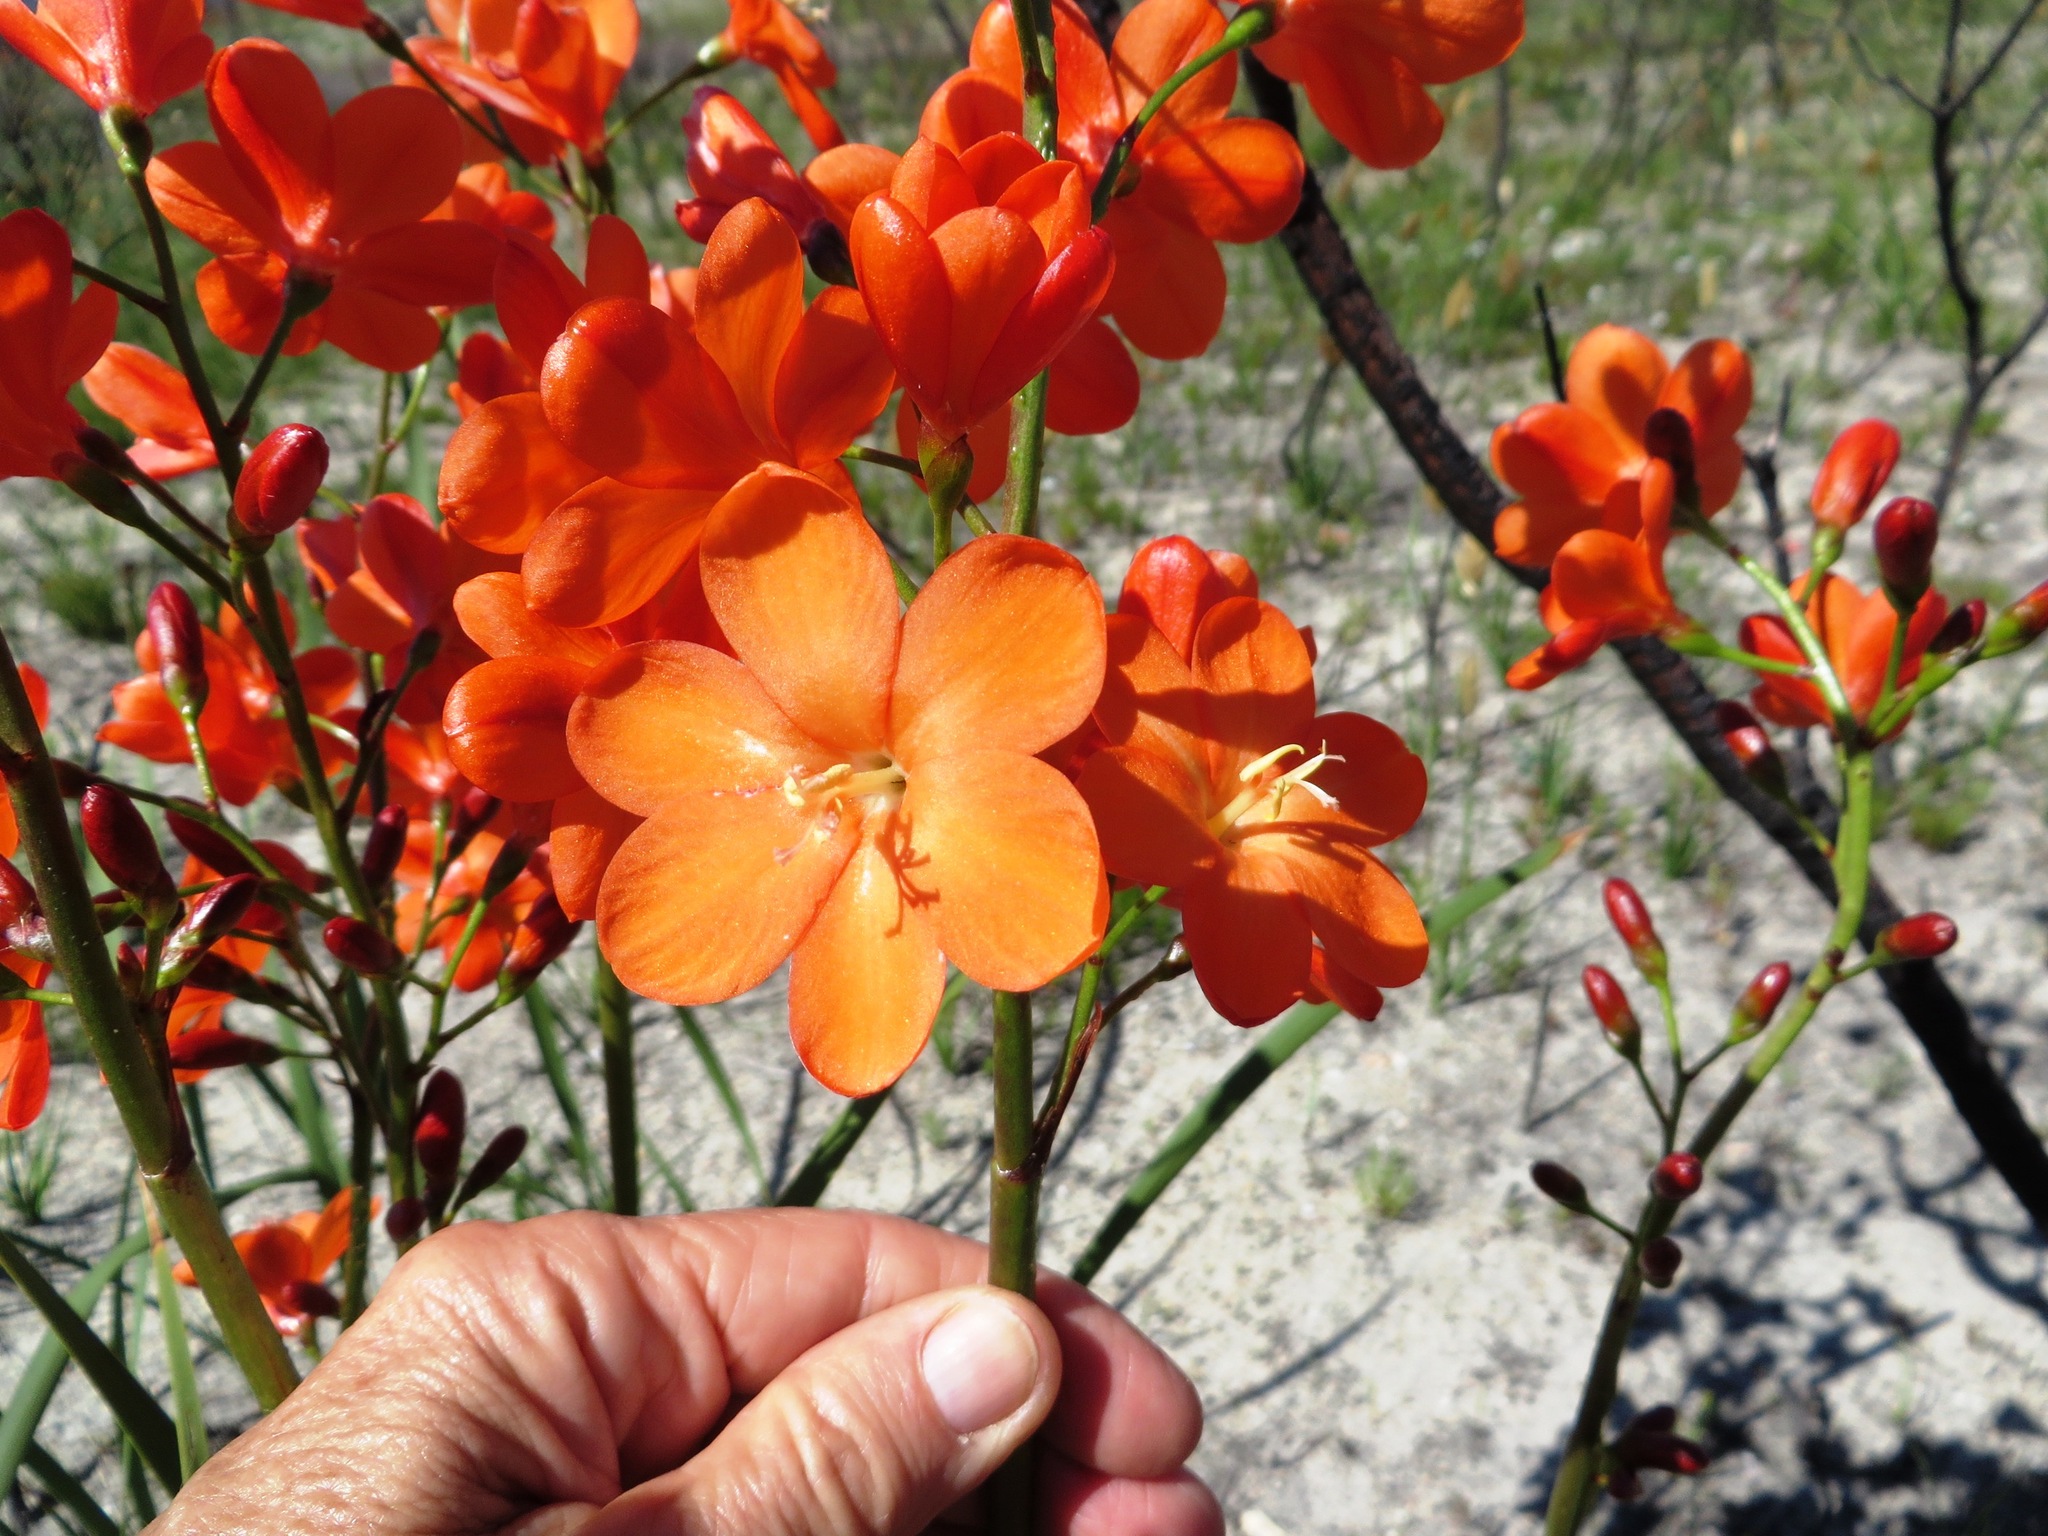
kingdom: Plantae
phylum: Tracheophyta
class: Liliopsida
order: Asparagales
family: Iridaceae
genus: Pillansia
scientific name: Pillansia templemannii
